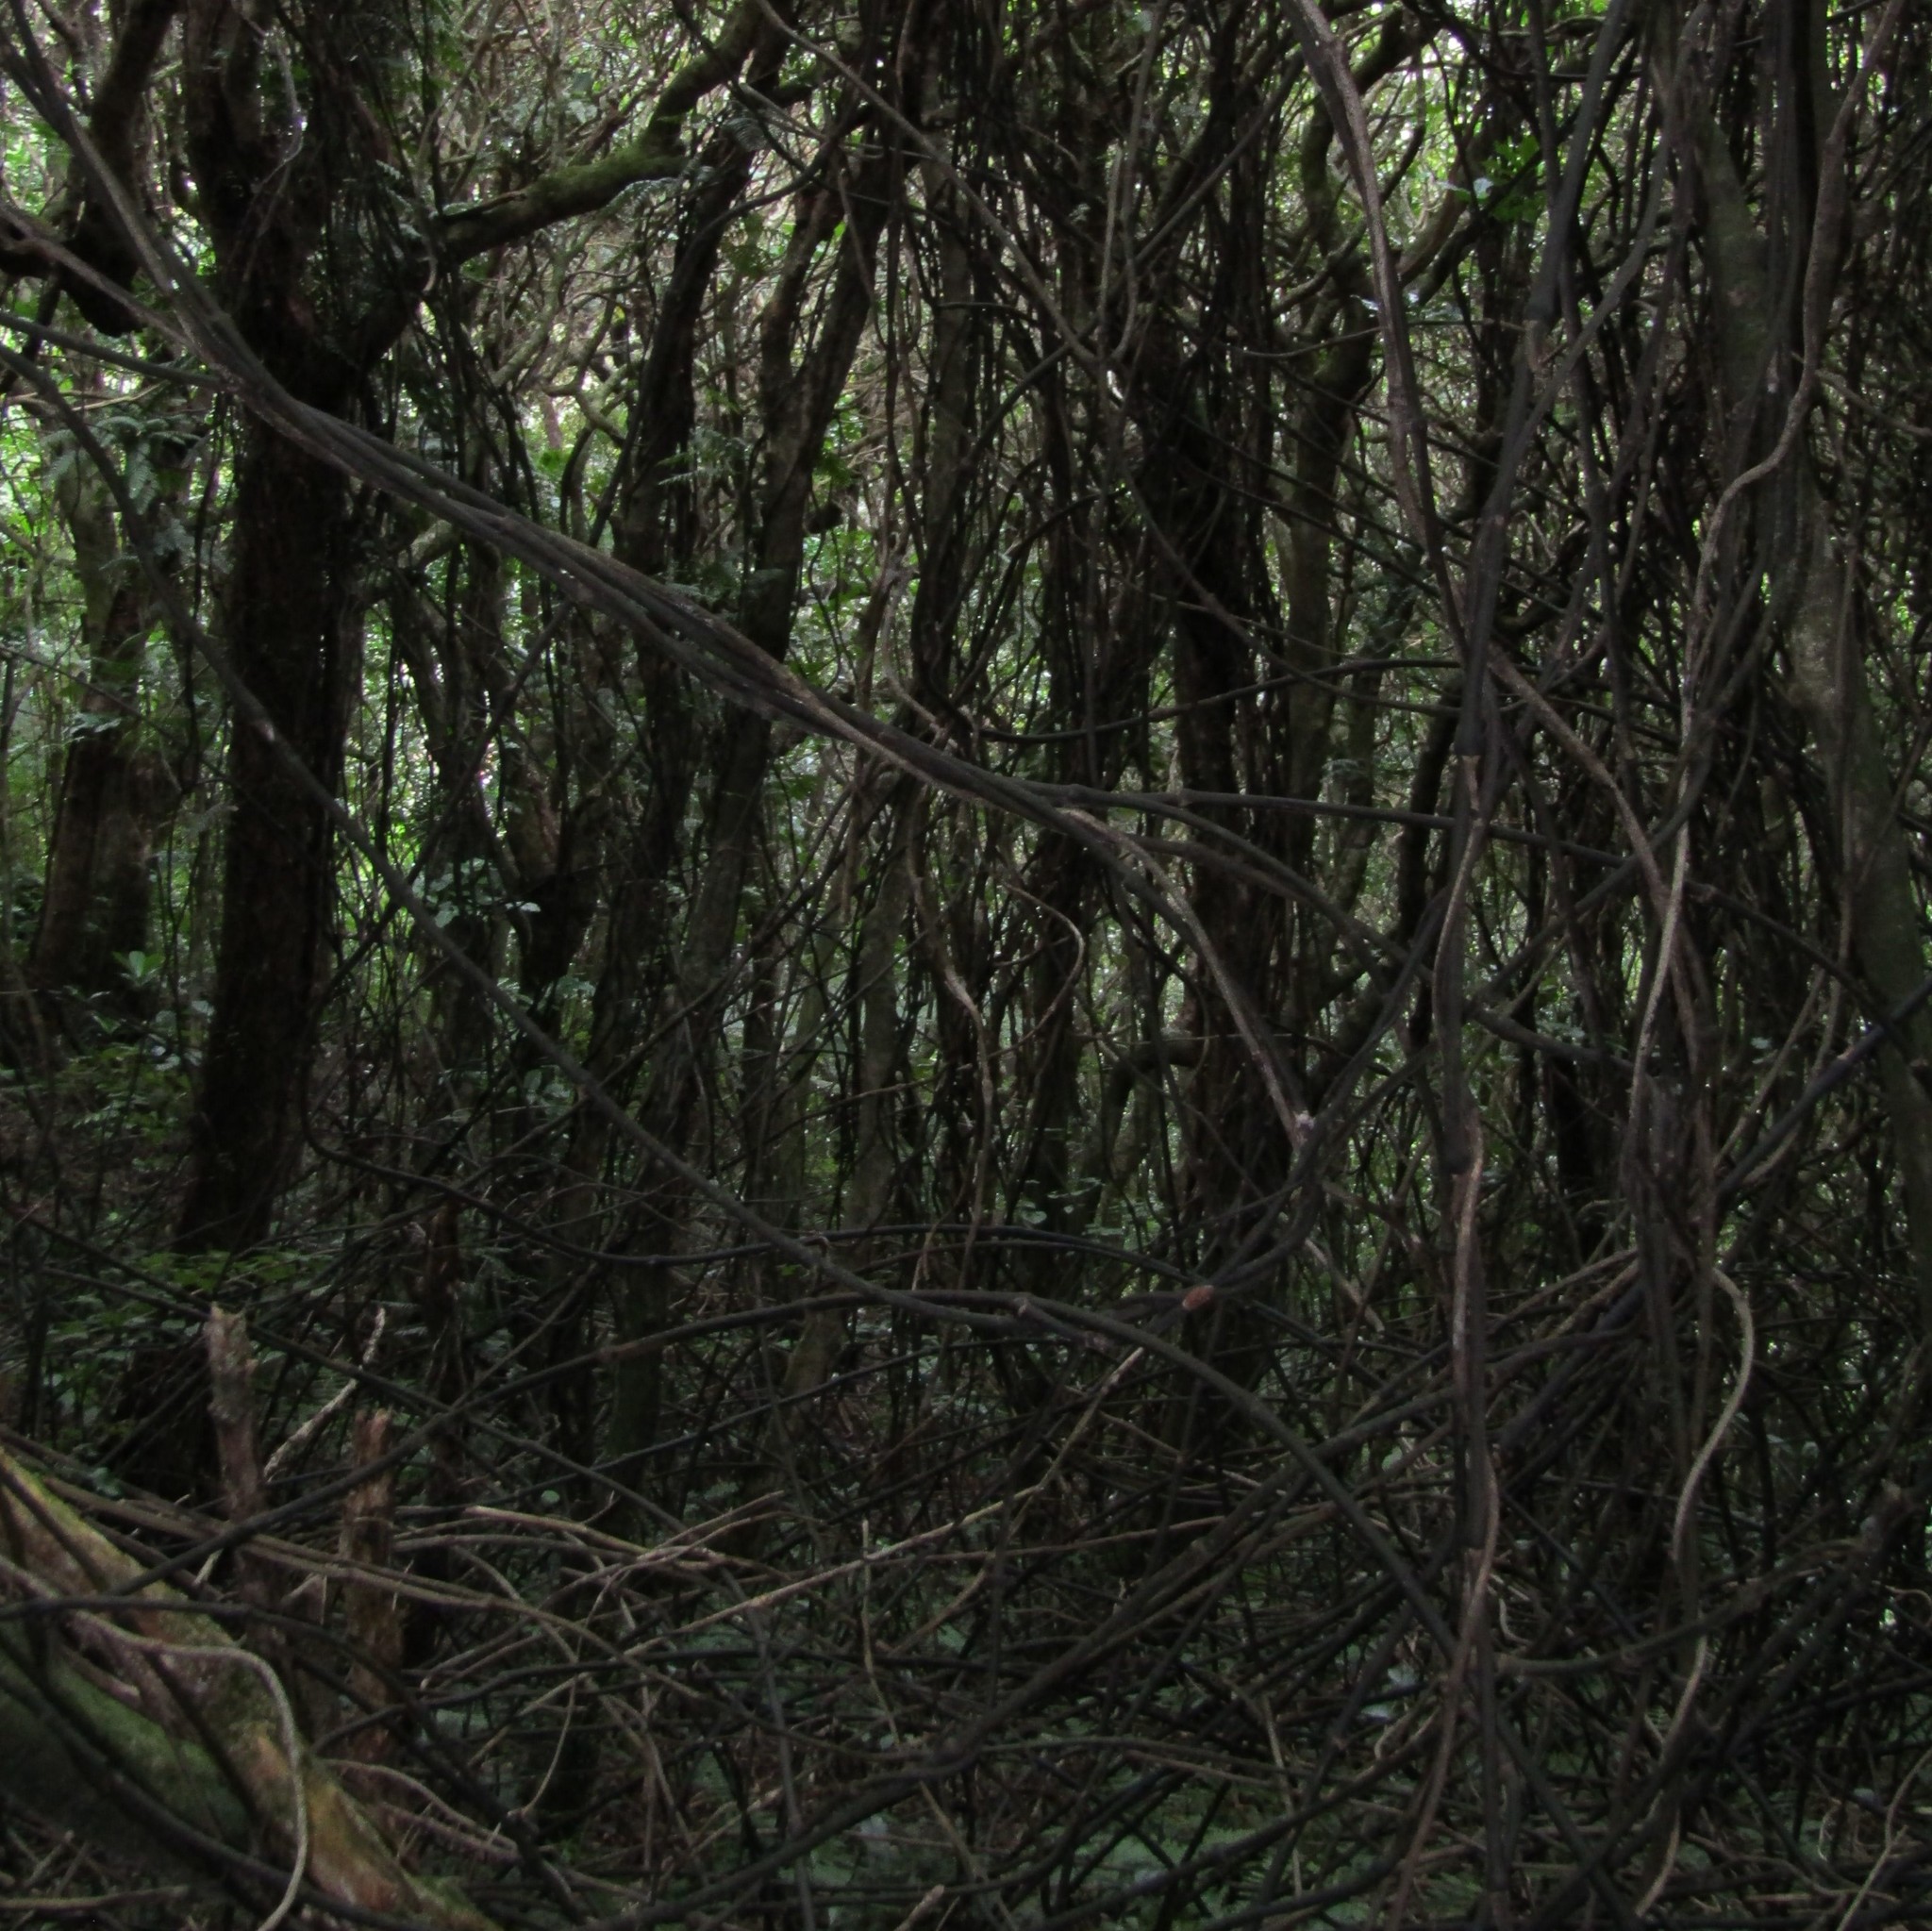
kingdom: Plantae
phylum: Tracheophyta
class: Liliopsida
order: Liliales
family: Ripogonaceae
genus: Ripogonum
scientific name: Ripogonum scandens
